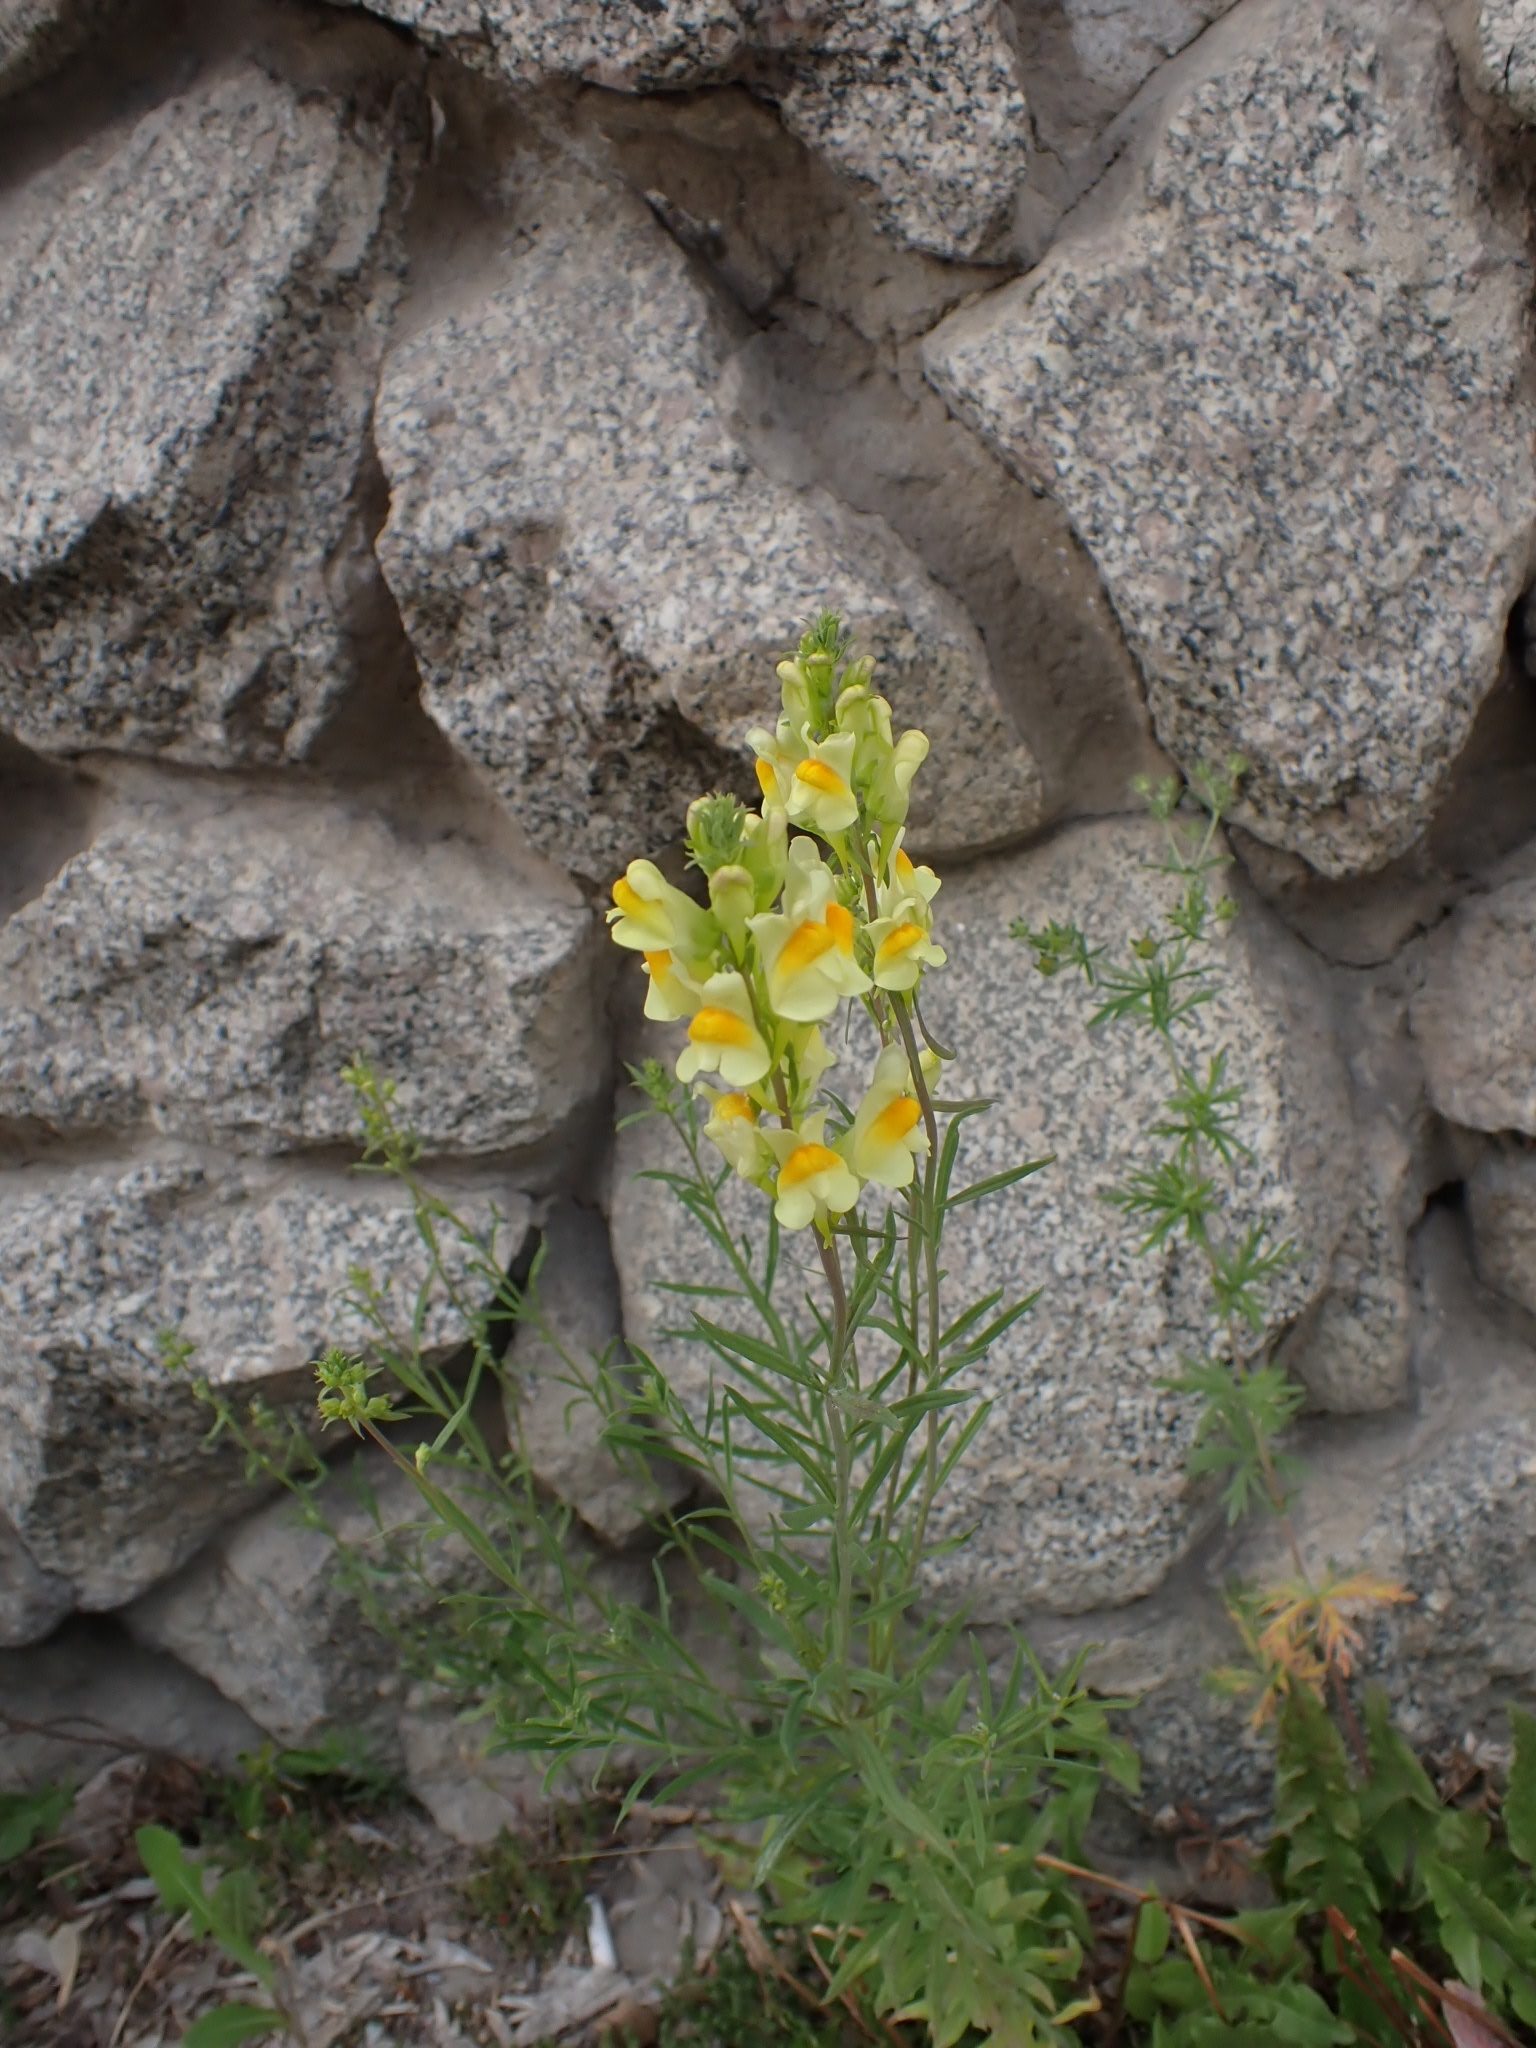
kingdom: Plantae
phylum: Tracheophyta
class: Magnoliopsida
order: Lamiales
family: Plantaginaceae
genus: Linaria
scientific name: Linaria vulgaris
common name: Butter and eggs
